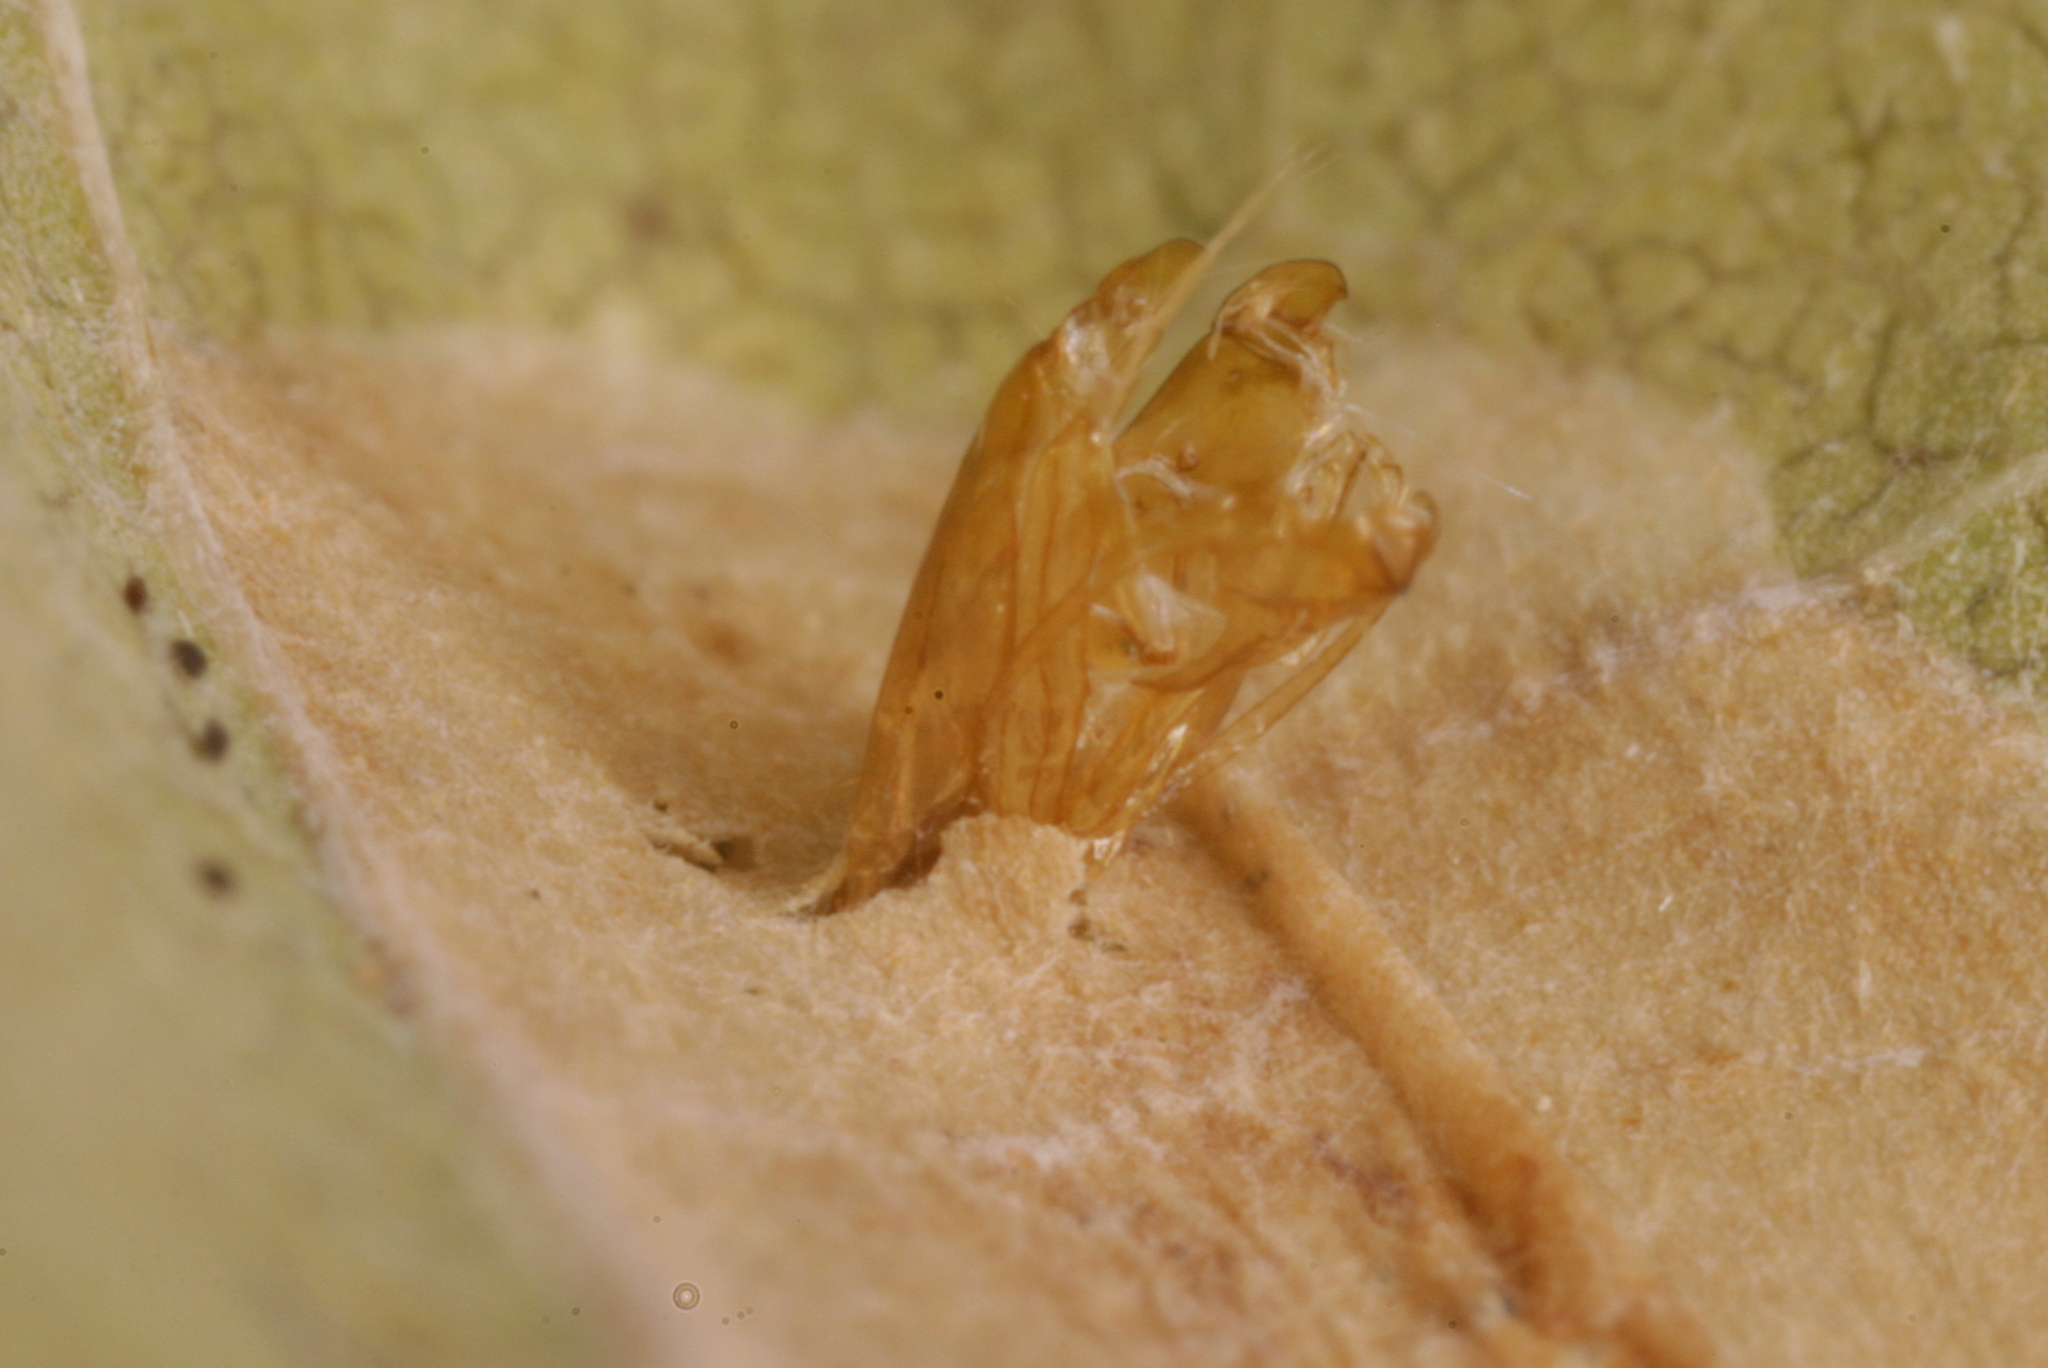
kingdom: Animalia
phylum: Arthropoda
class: Insecta
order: Lepidoptera
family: Gracillariidae
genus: Phyllonorycter
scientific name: Phyllonorycter quercifoliella
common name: Common oak midget
